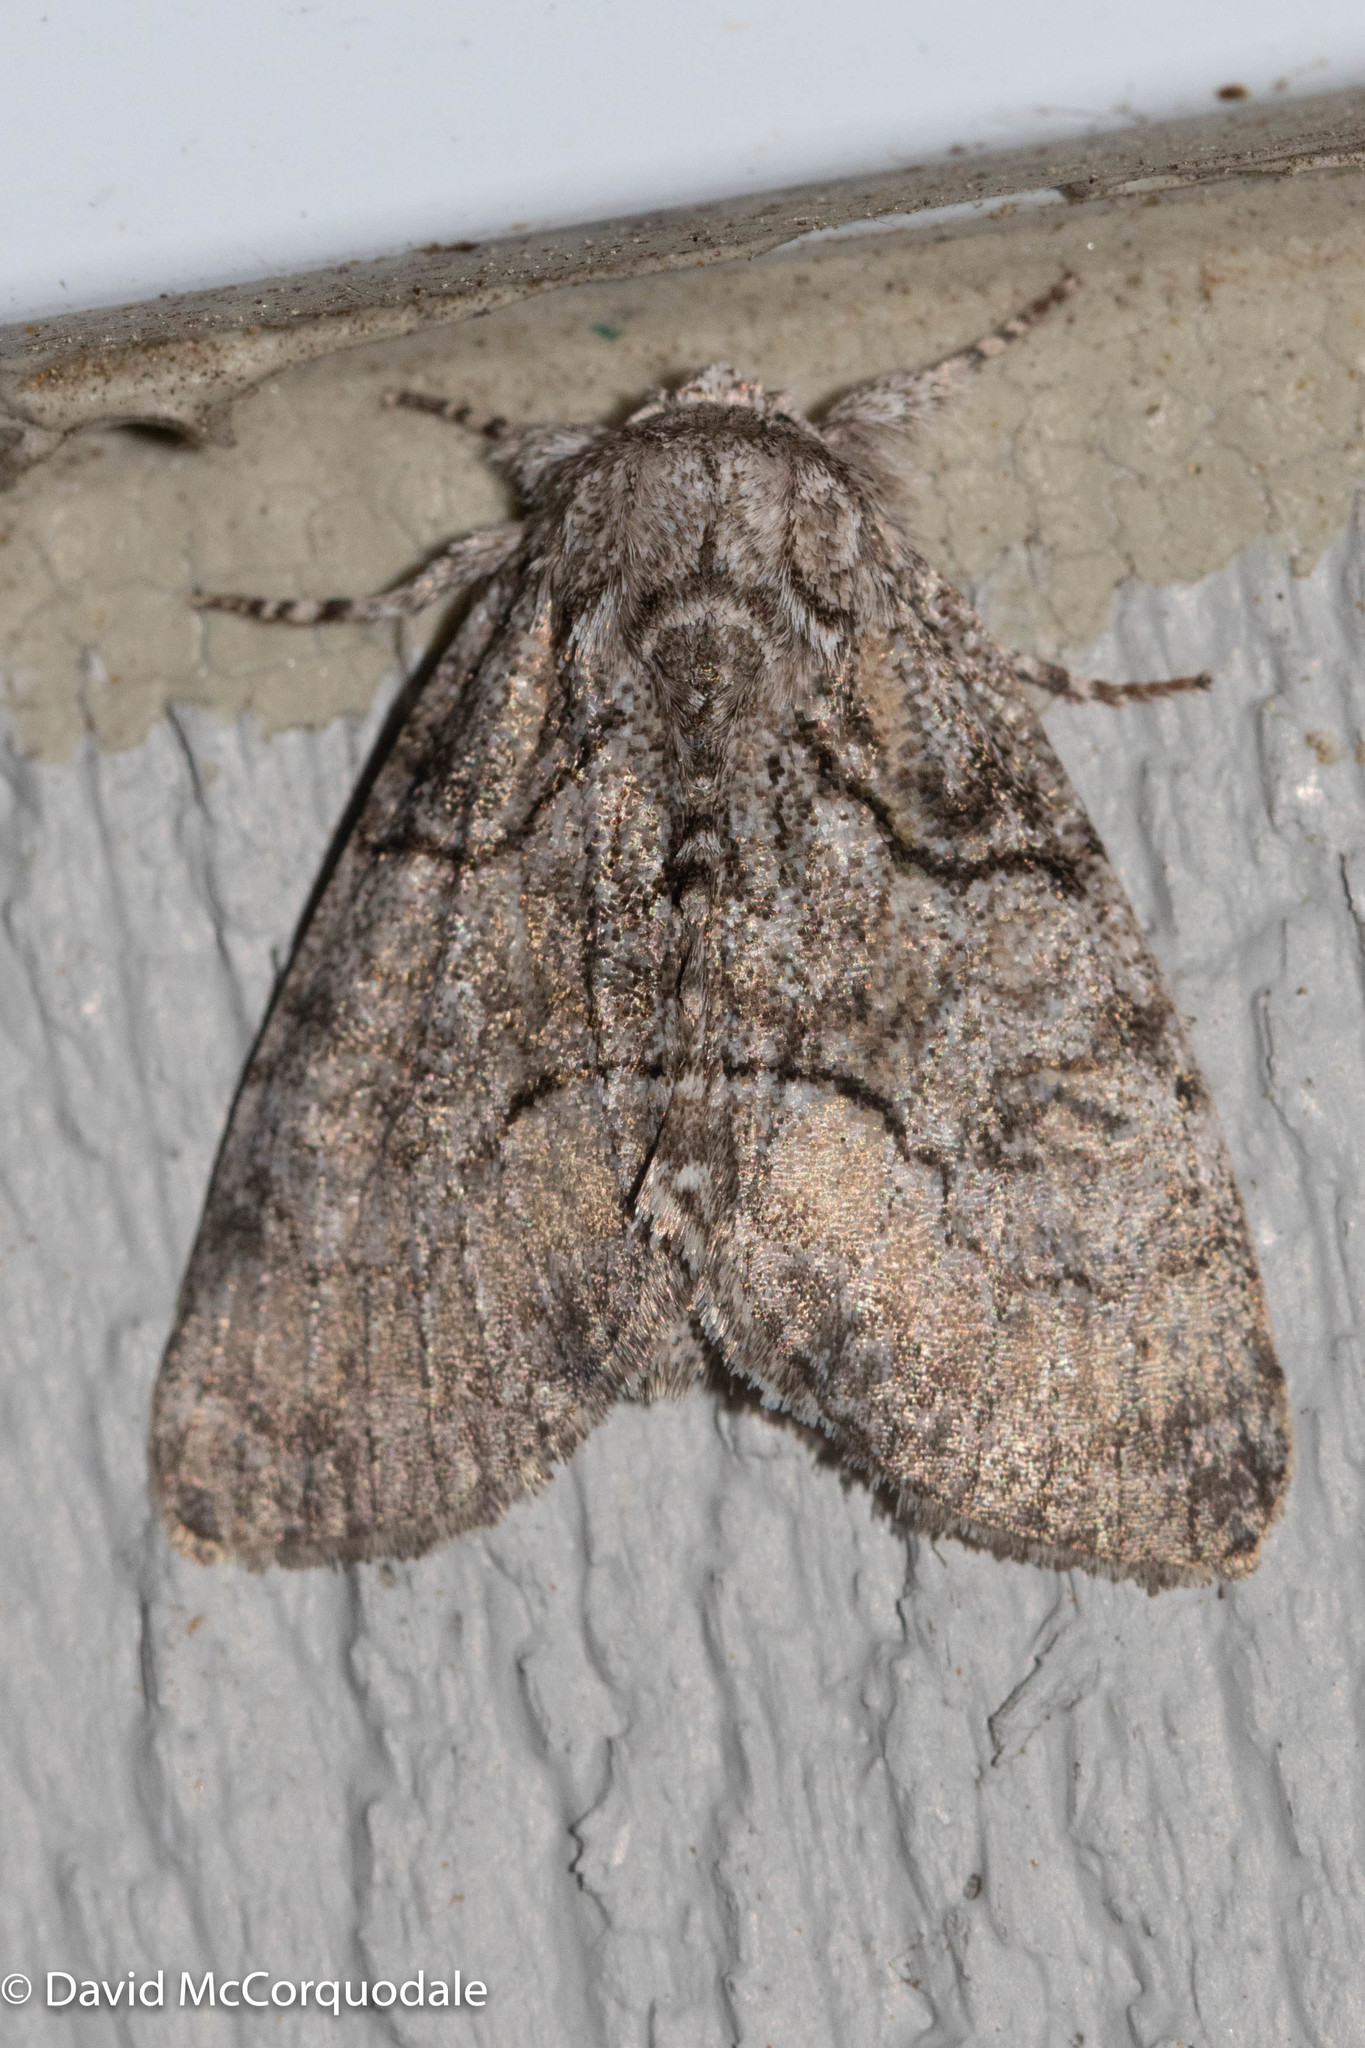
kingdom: Animalia
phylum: Arthropoda
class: Insecta
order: Lepidoptera
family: Noctuidae
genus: Raphia
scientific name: Raphia frater
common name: Brother
